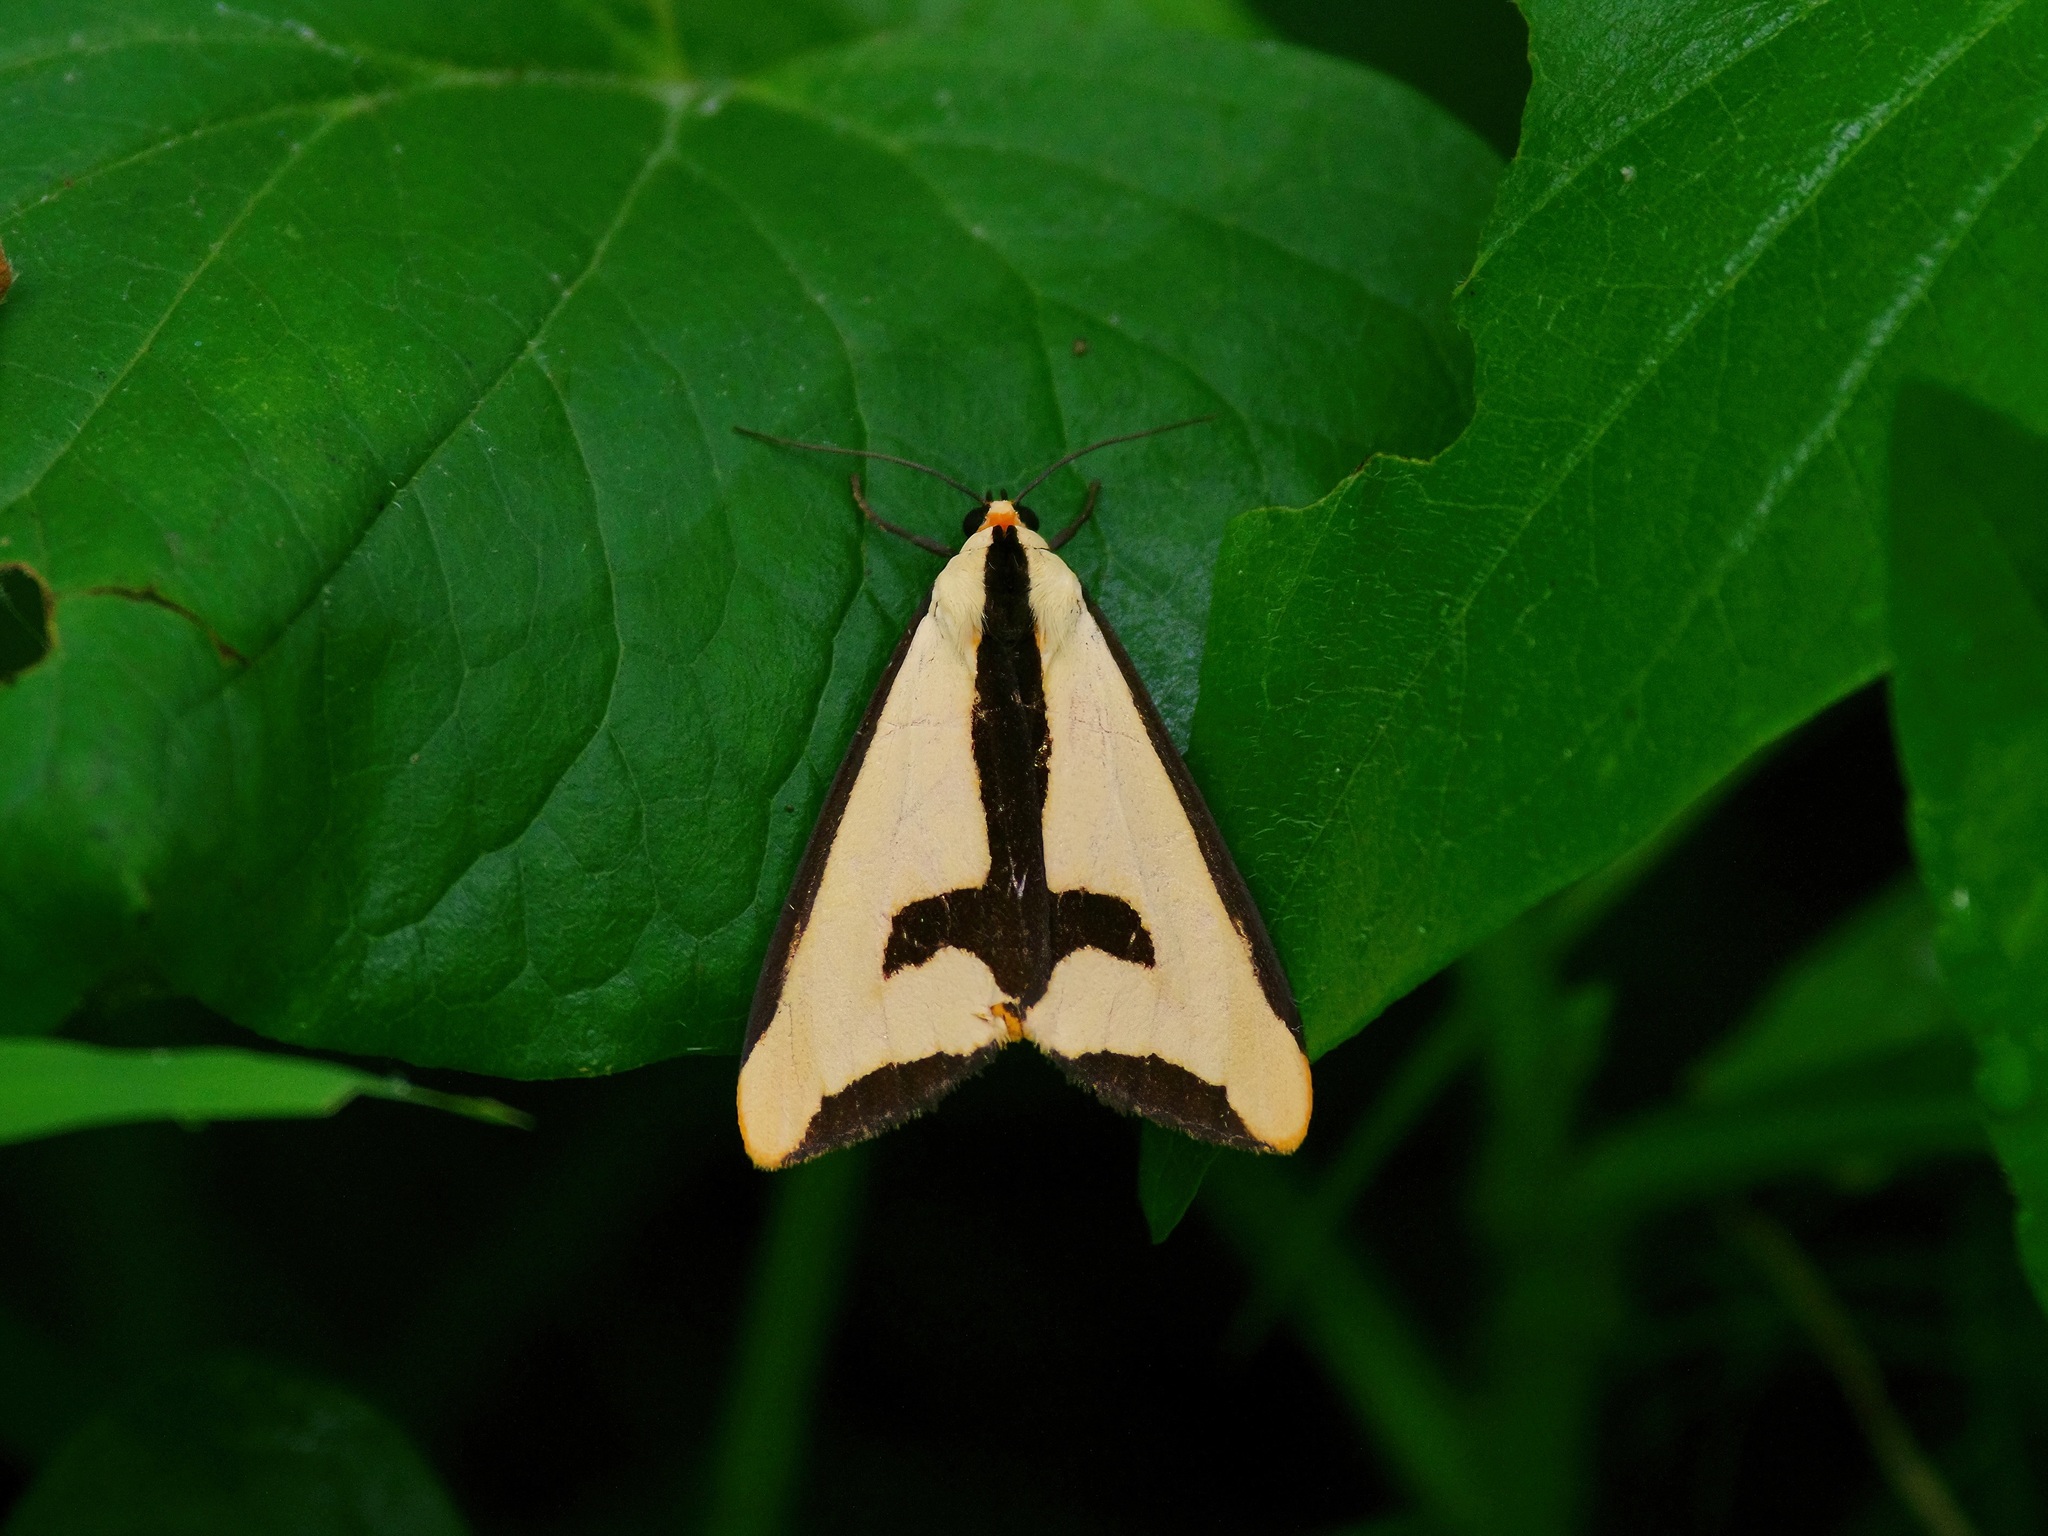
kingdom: Animalia
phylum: Arthropoda
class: Insecta
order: Lepidoptera
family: Erebidae
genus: Haploa
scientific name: Haploa clymene
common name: Clymene moth
